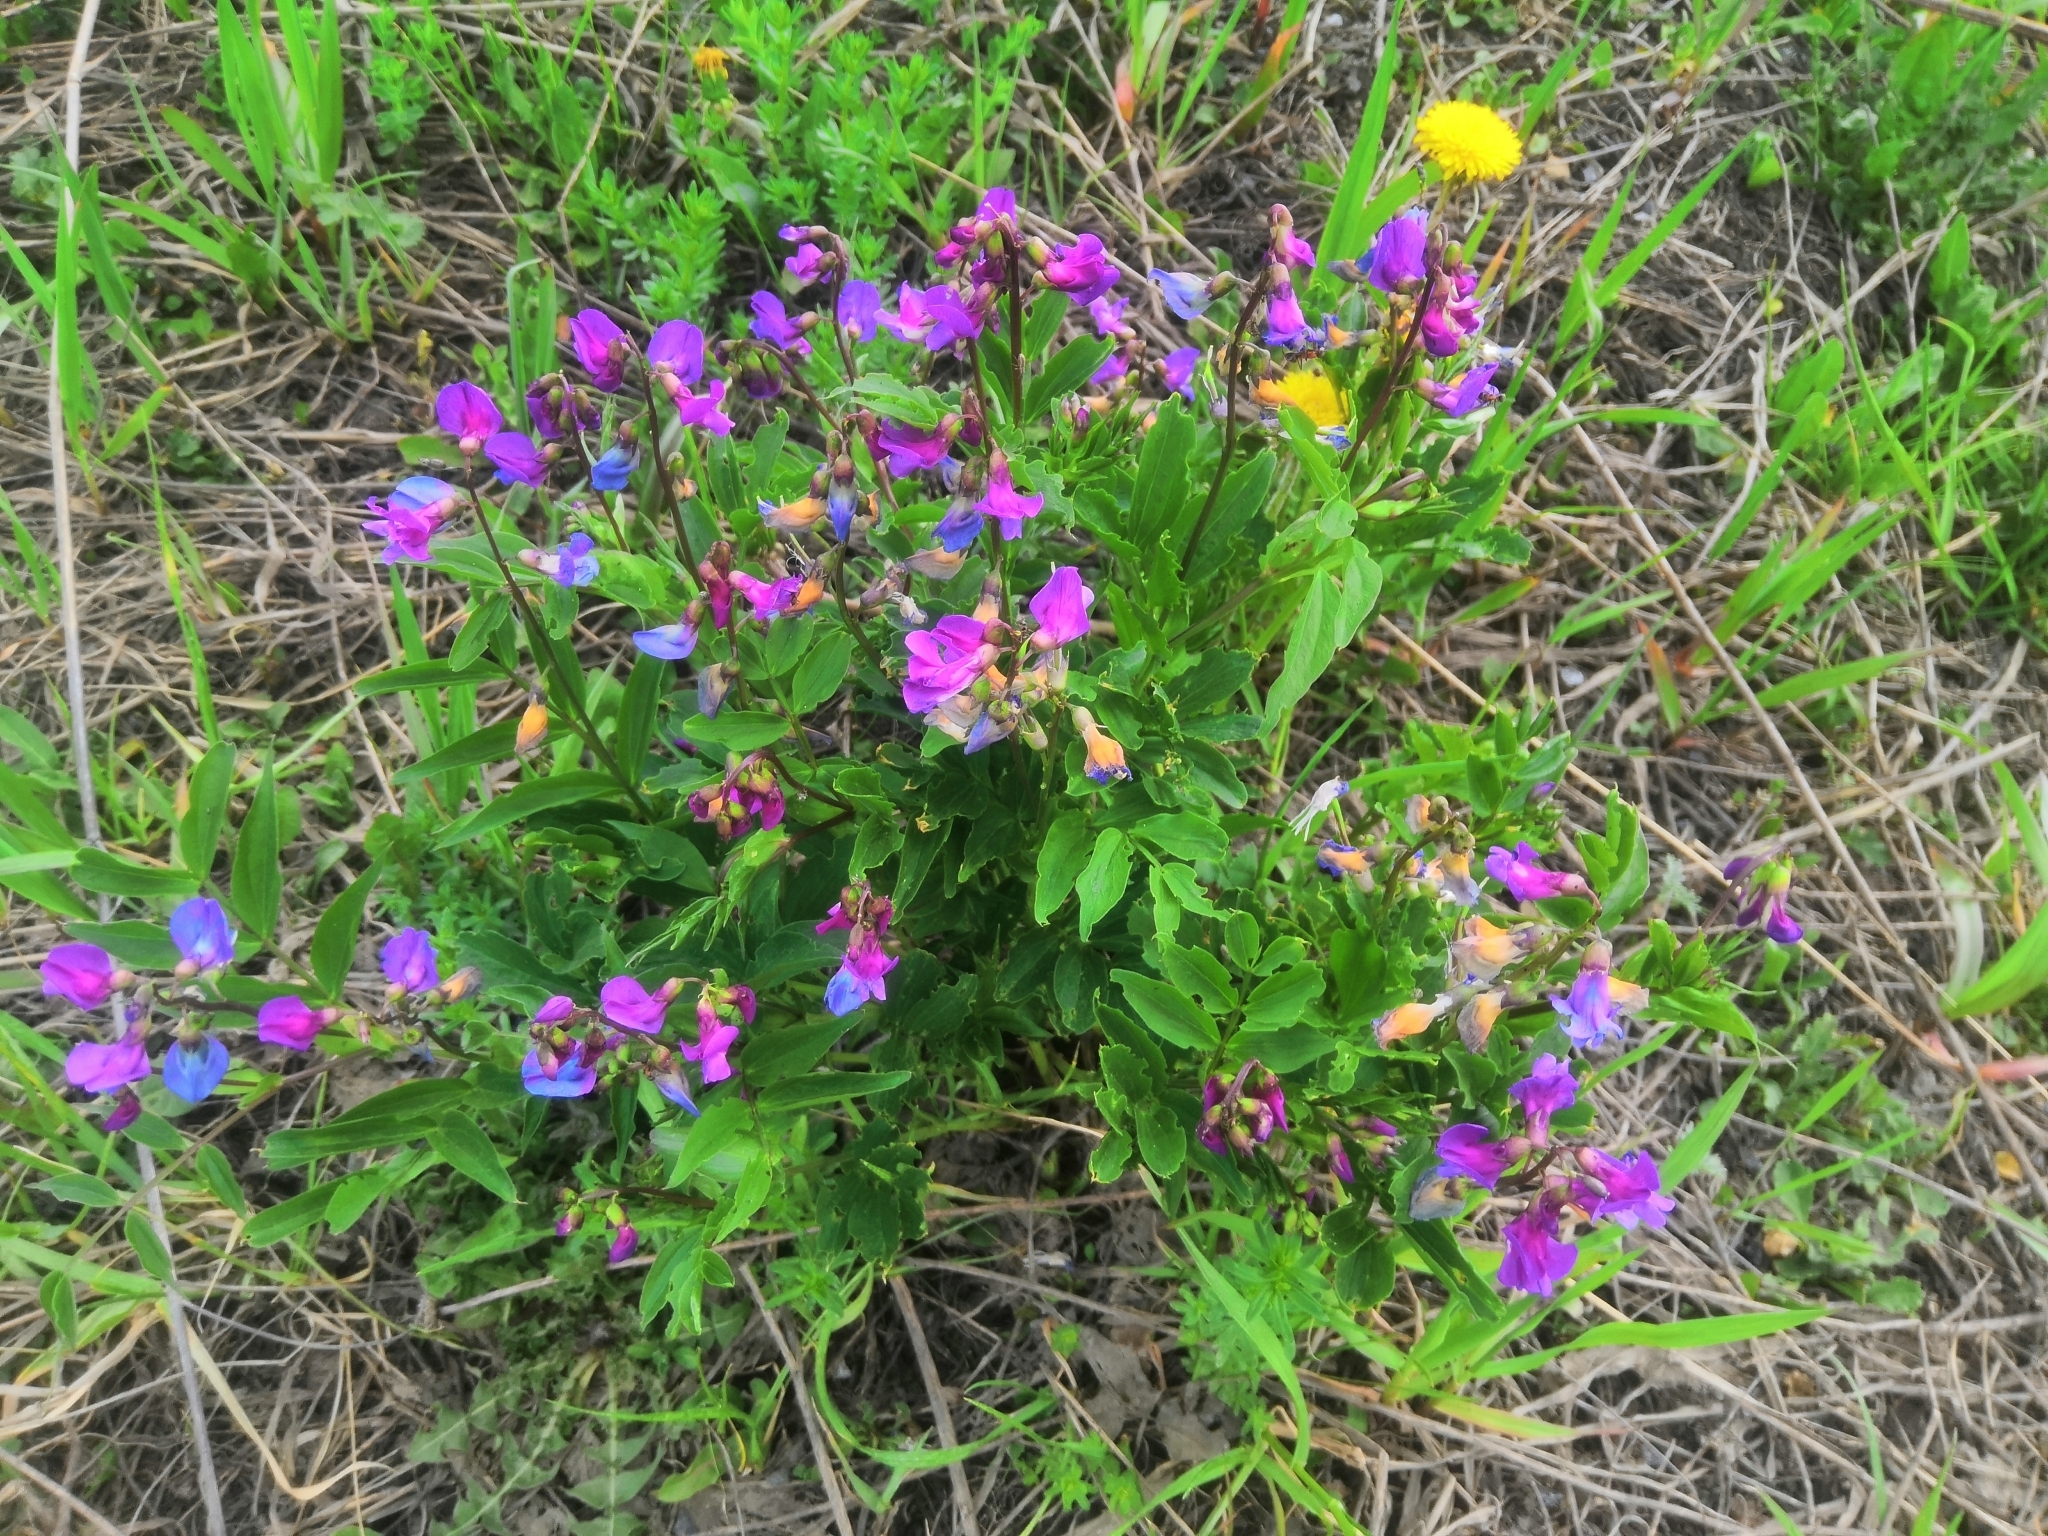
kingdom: Plantae
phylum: Tracheophyta
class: Magnoliopsida
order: Fabales
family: Fabaceae
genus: Lathyrus
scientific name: Lathyrus vernus
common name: Spring pea
